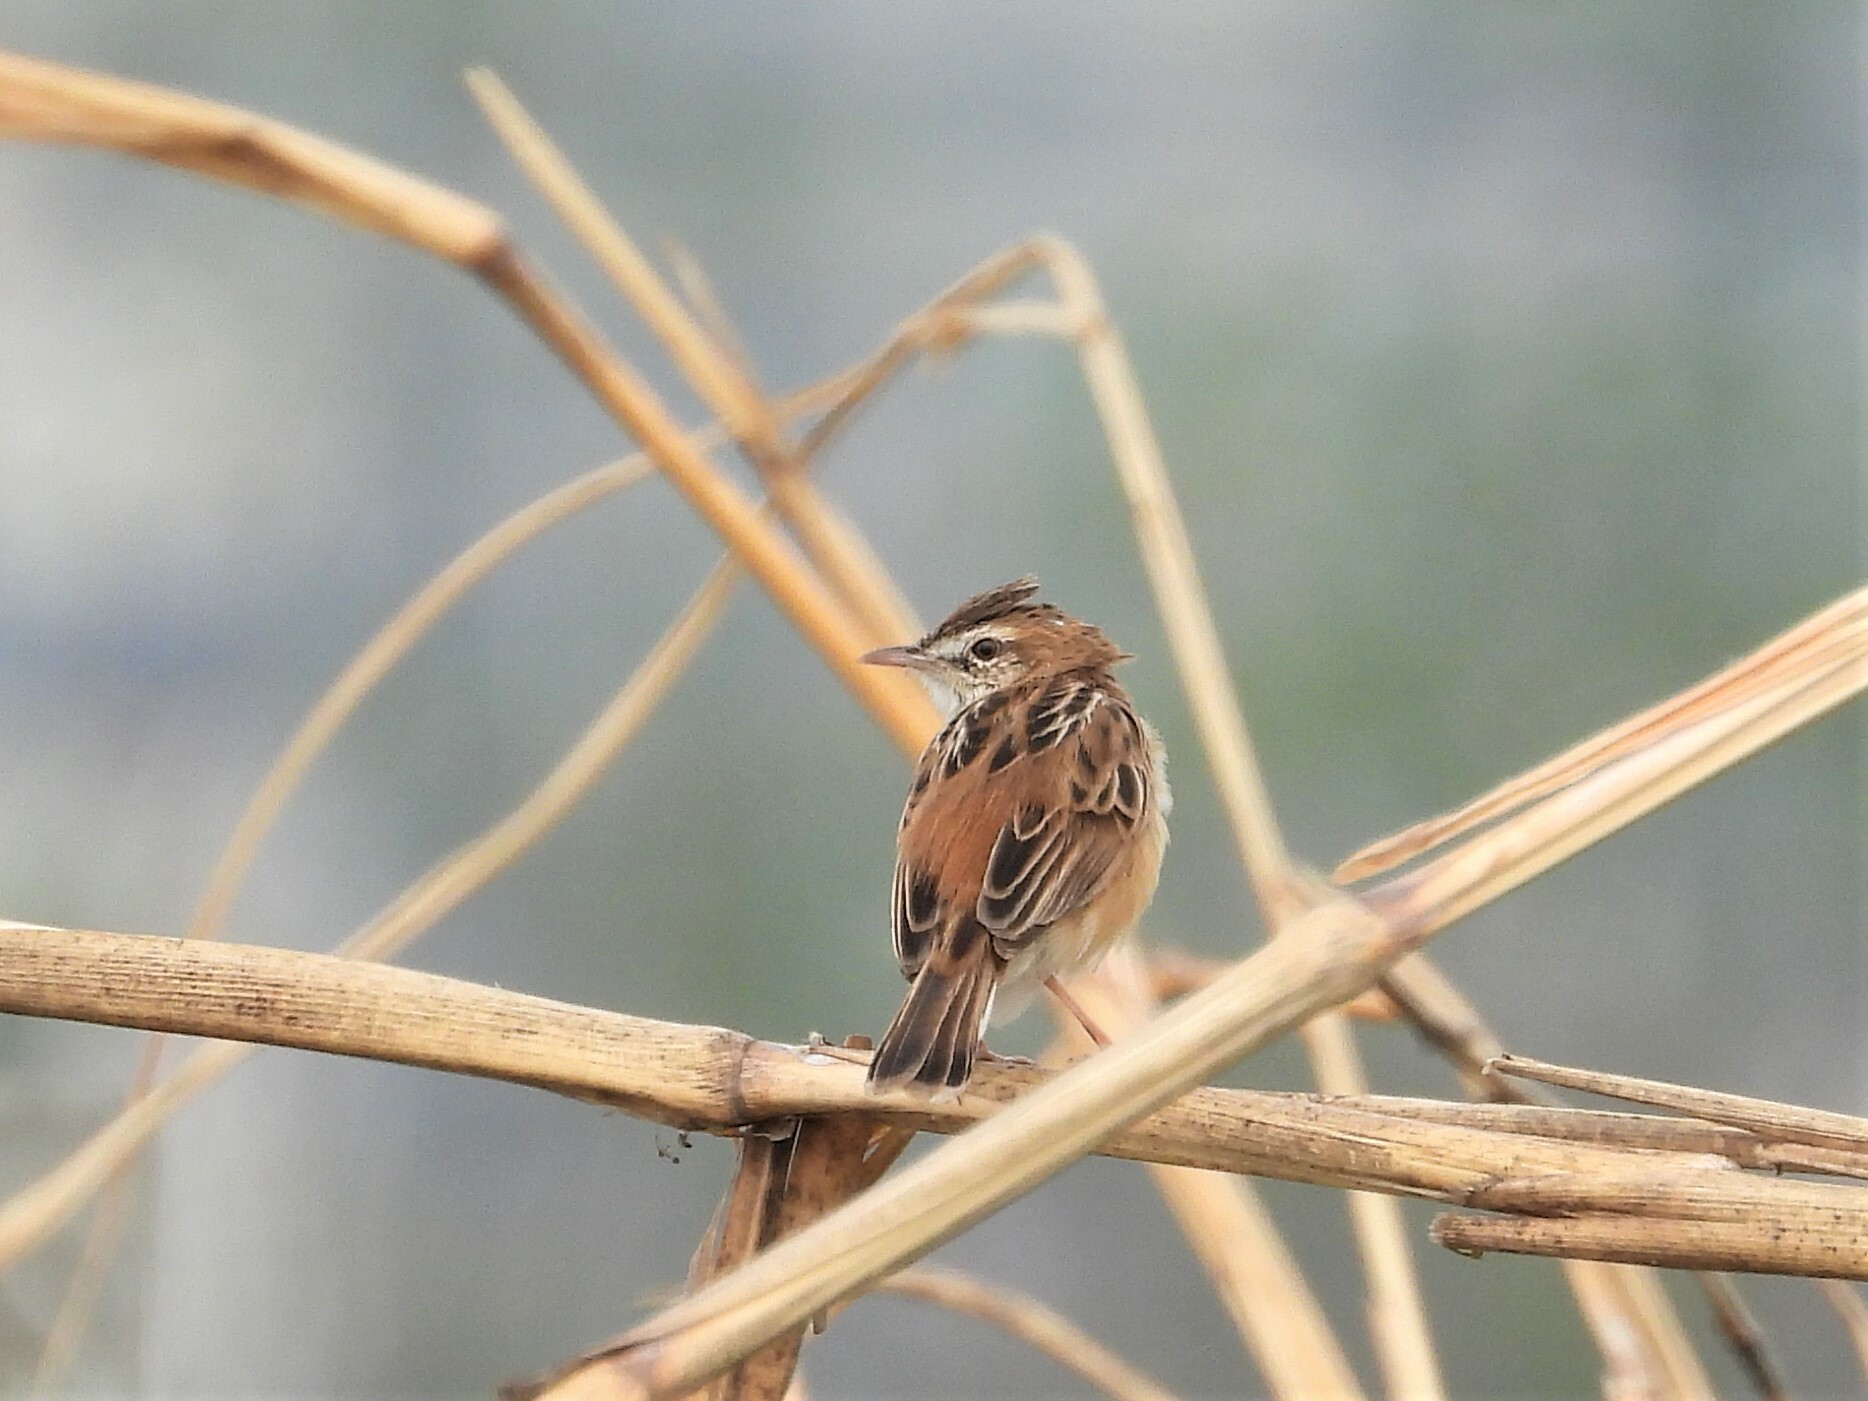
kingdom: Animalia
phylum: Chordata
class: Aves
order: Passeriformes
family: Cisticolidae
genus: Cisticola
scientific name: Cisticola juncidis
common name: Zitting cisticola
